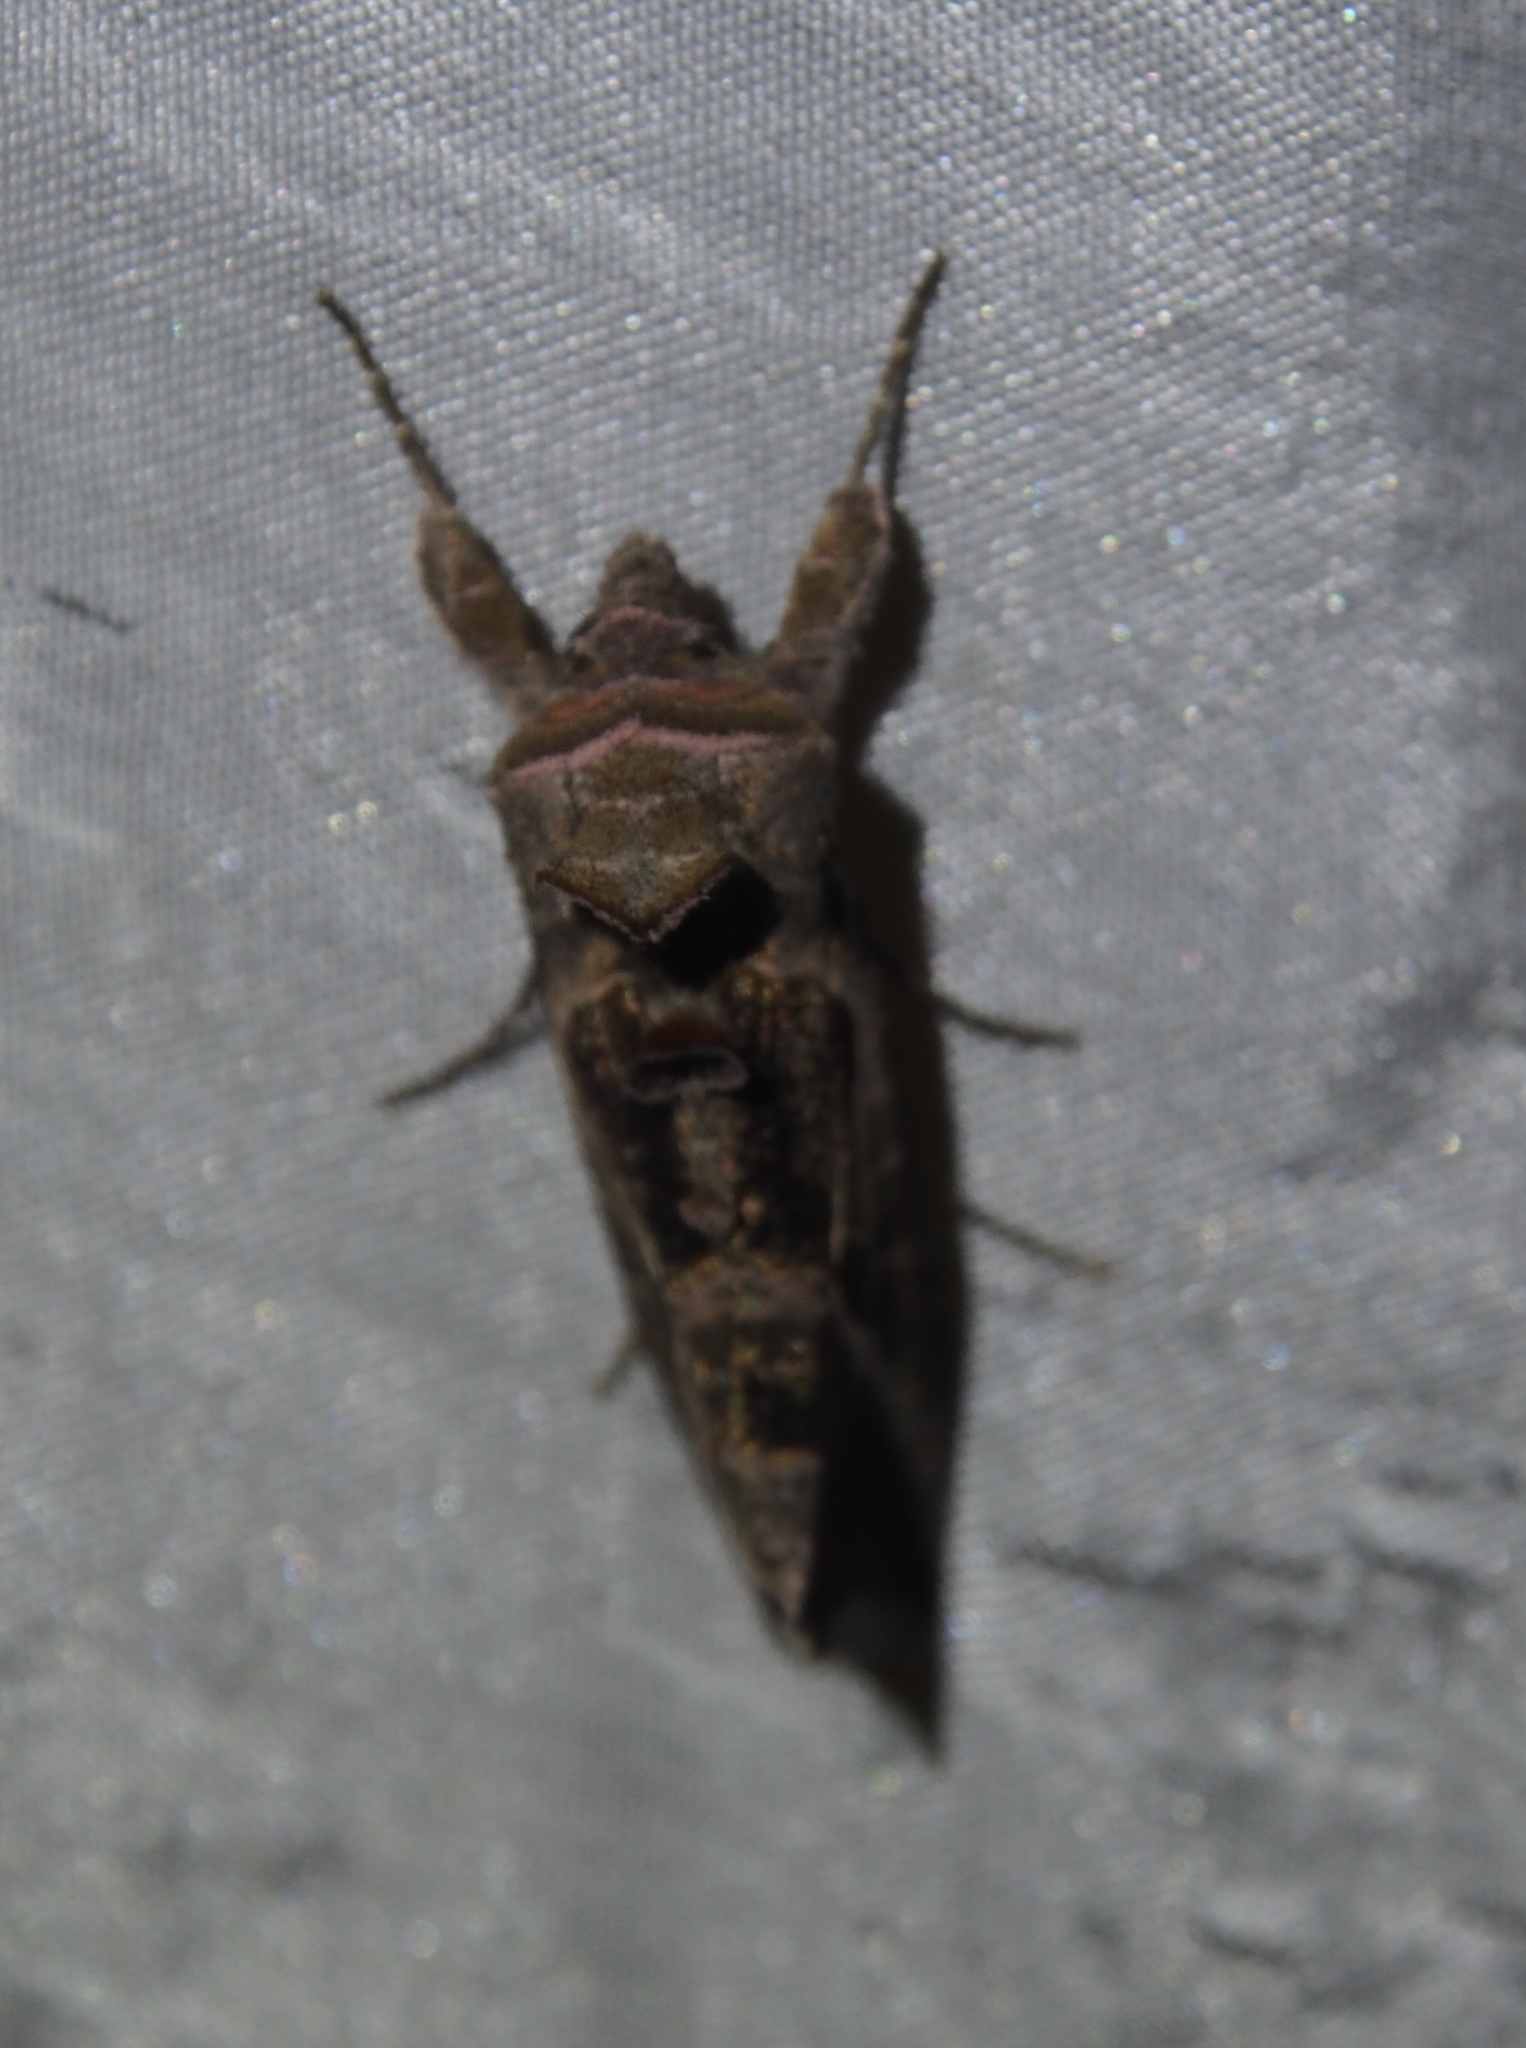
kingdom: Animalia
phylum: Arthropoda
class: Insecta
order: Lepidoptera
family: Noctuidae
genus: Autoplusia
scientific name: Autoplusia egenoides
